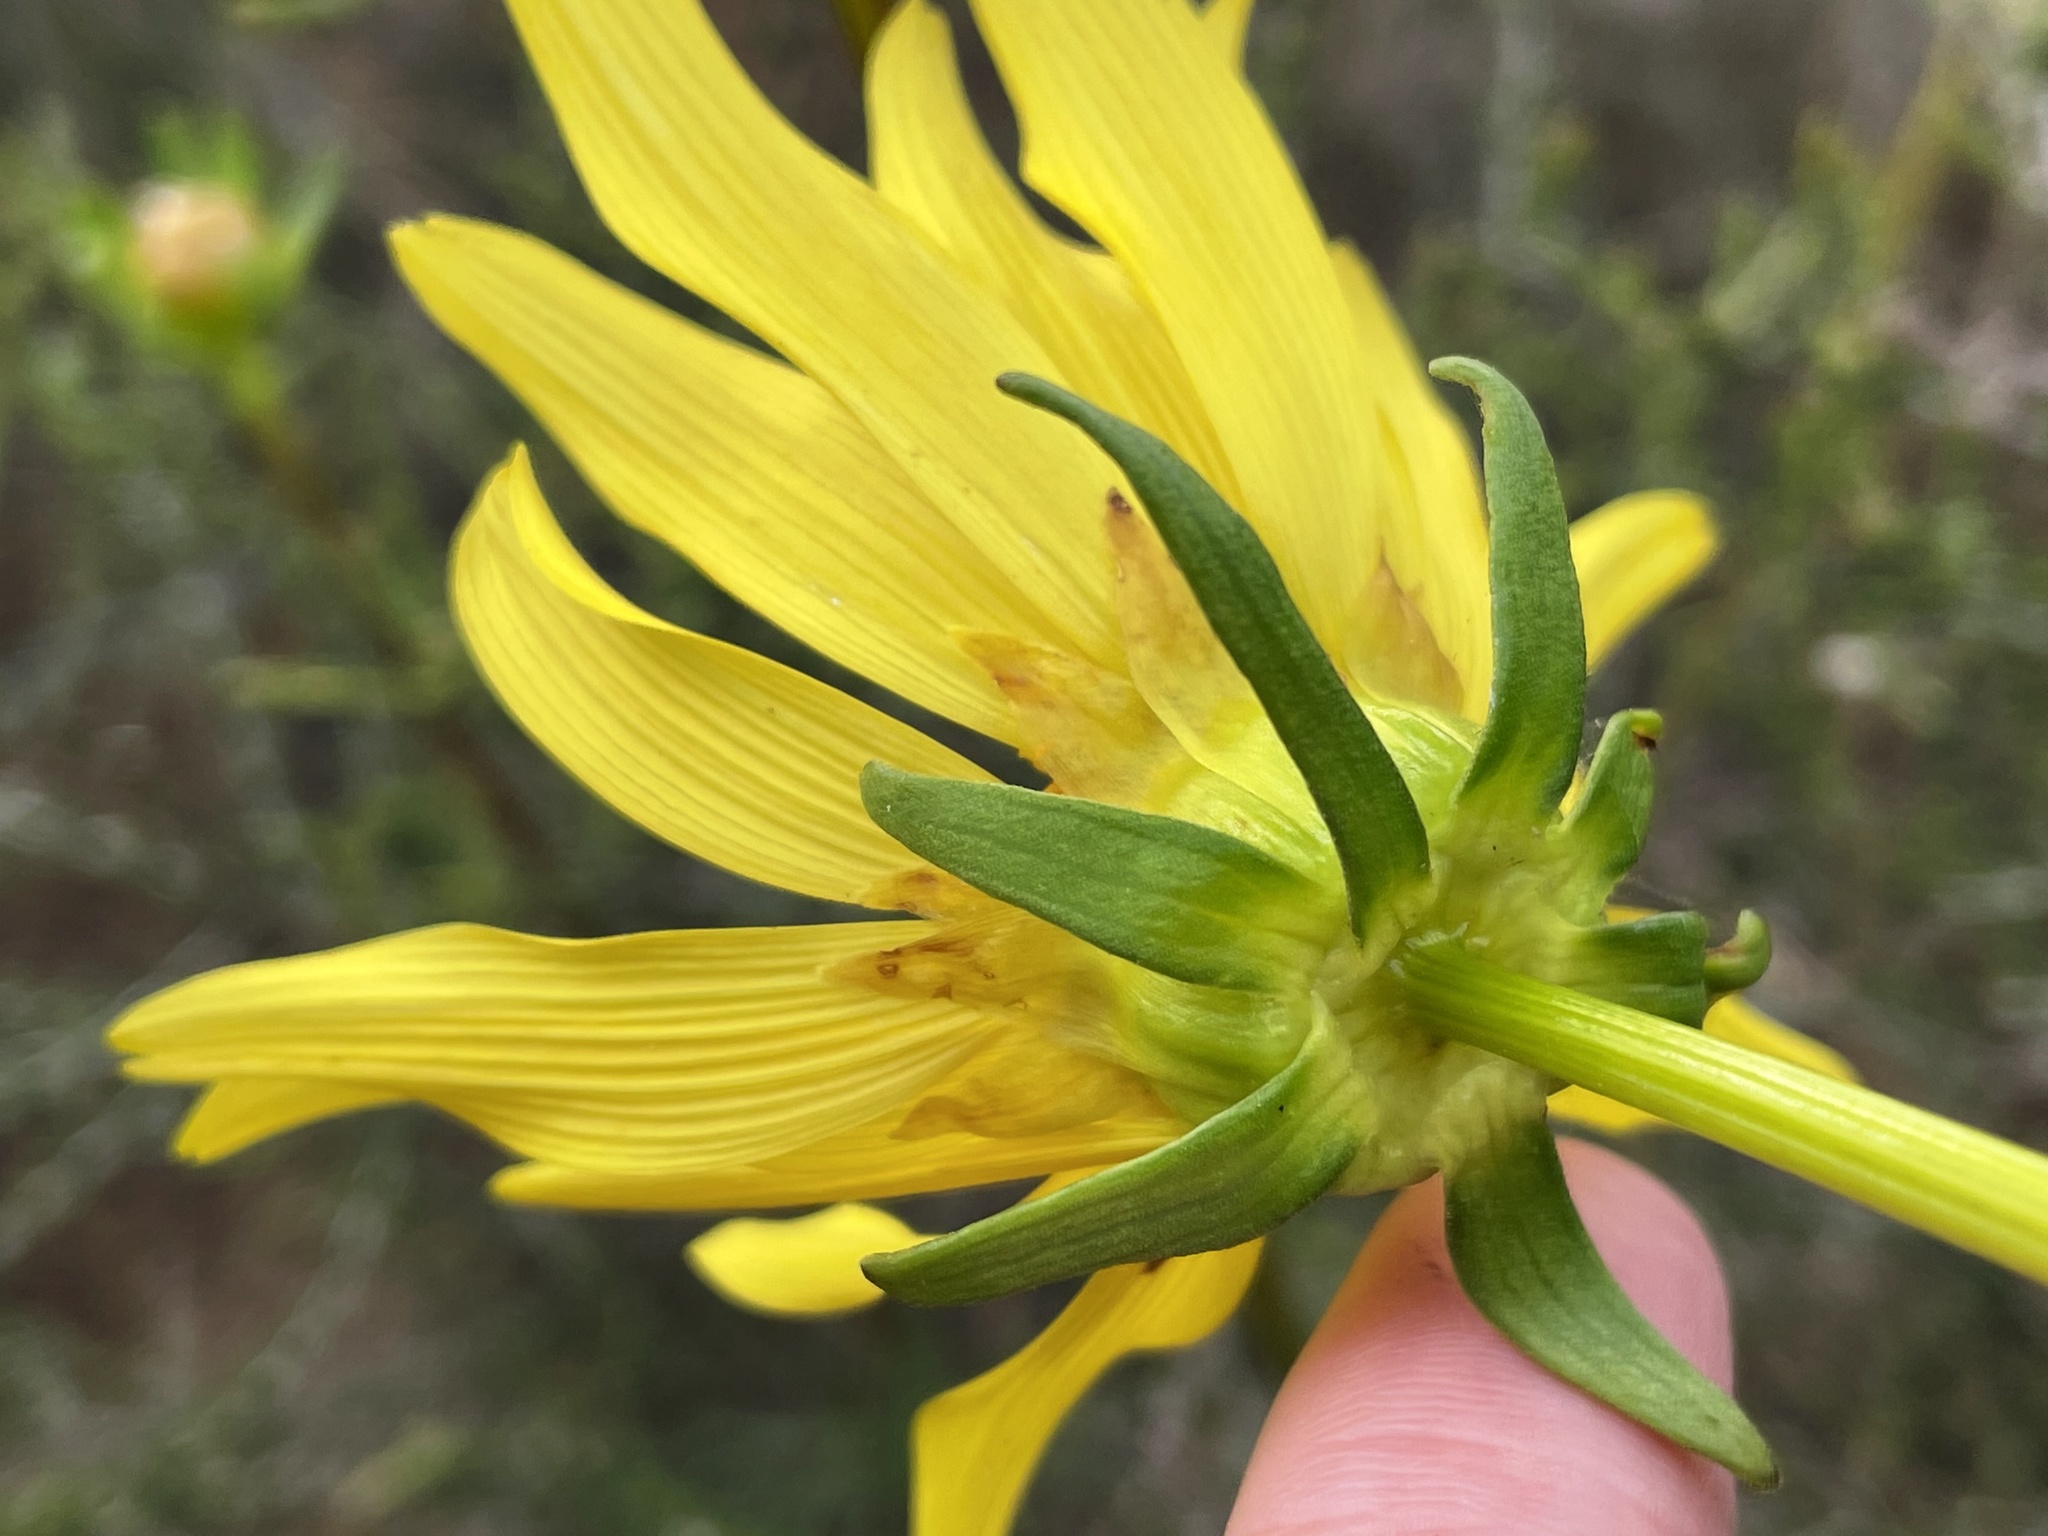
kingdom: Plantae
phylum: Tracheophyta
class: Magnoliopsida
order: Asterales
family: Asteraceae
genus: Coreopsis
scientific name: Coreopsis maritima
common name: Sea-dahlia
